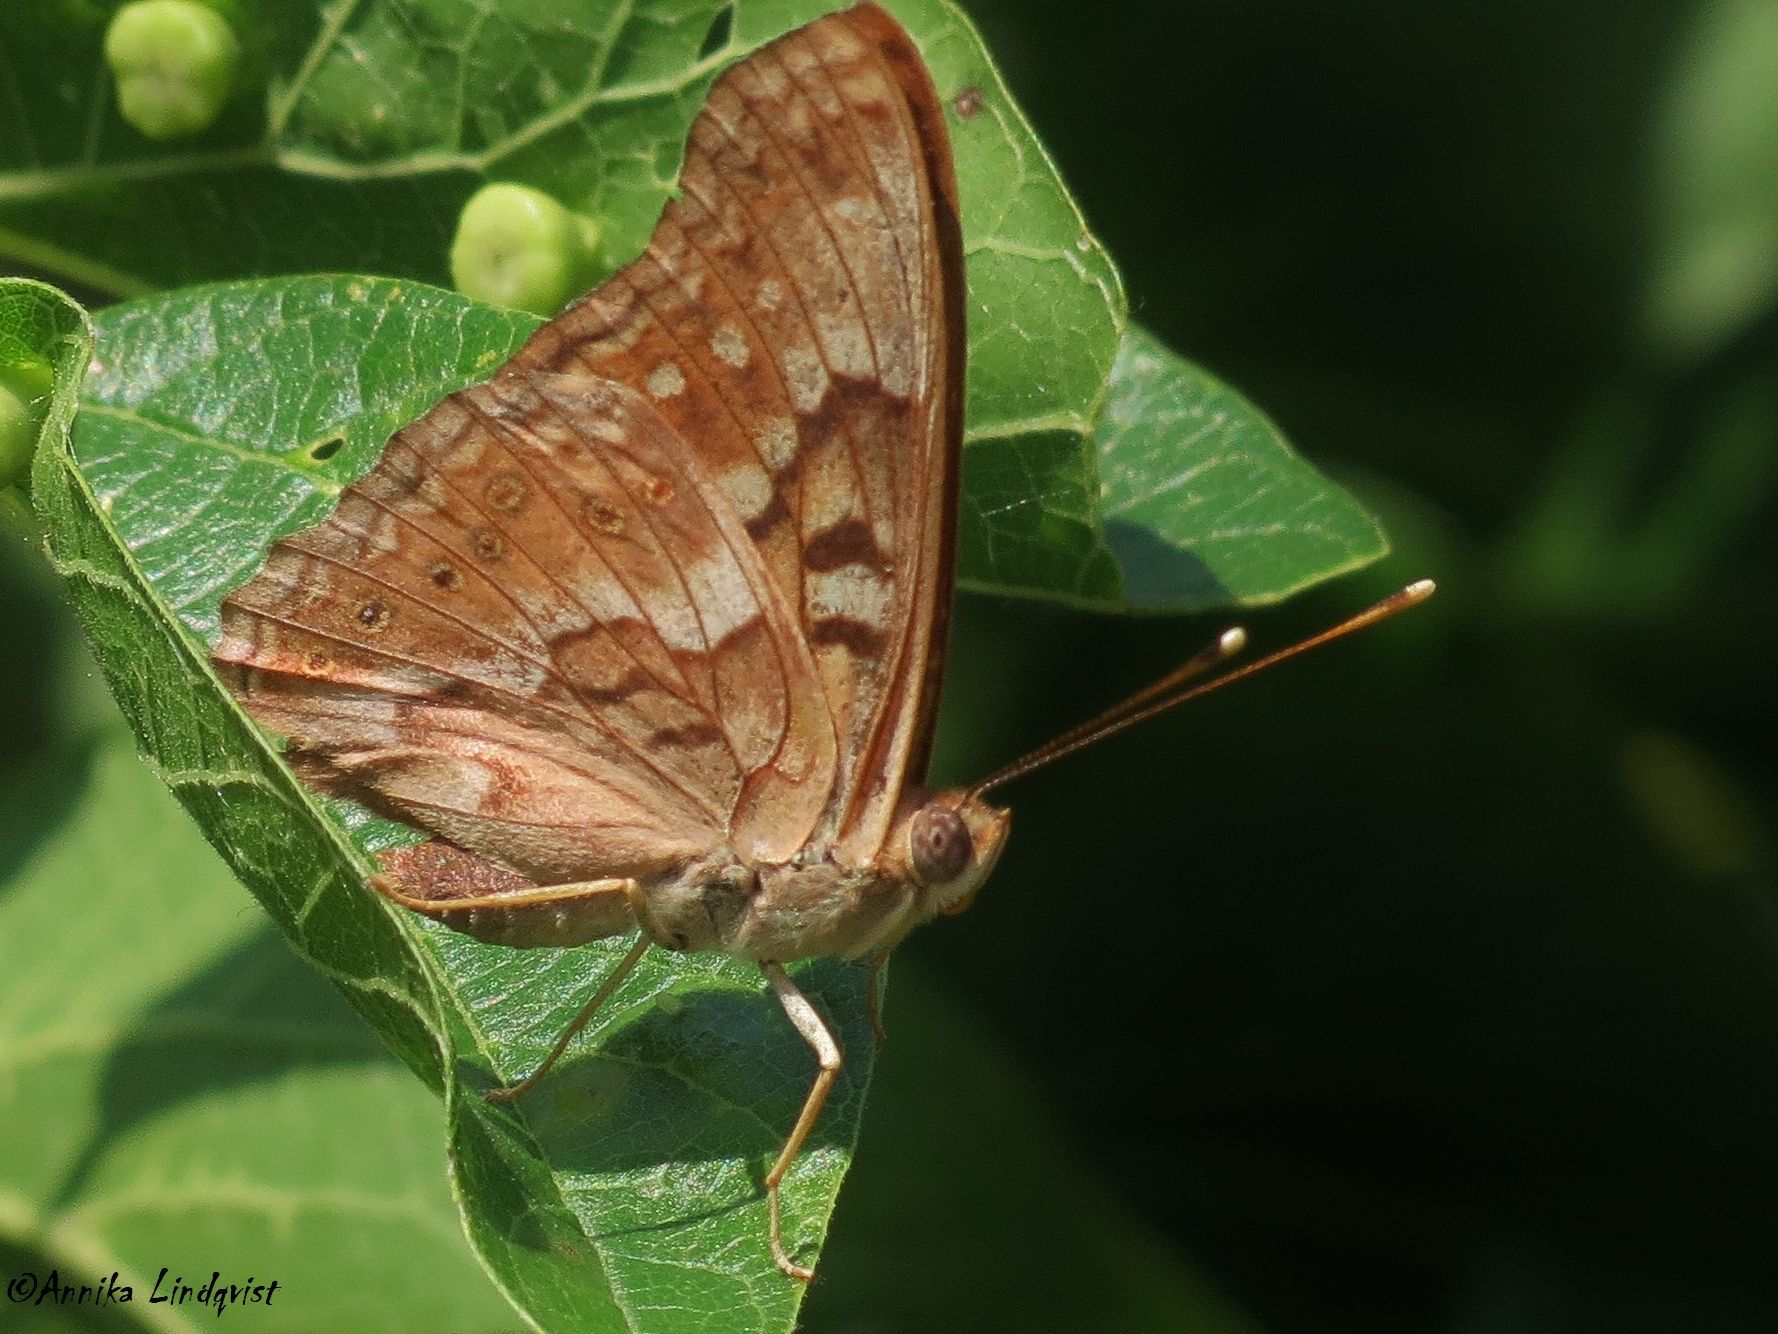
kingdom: Animalia
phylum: Arthropoda
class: Insecta
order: Lepidoptera
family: Nymphalidae
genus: Asterocampa
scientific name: Asterocampa clyton
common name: Tawny emperor
